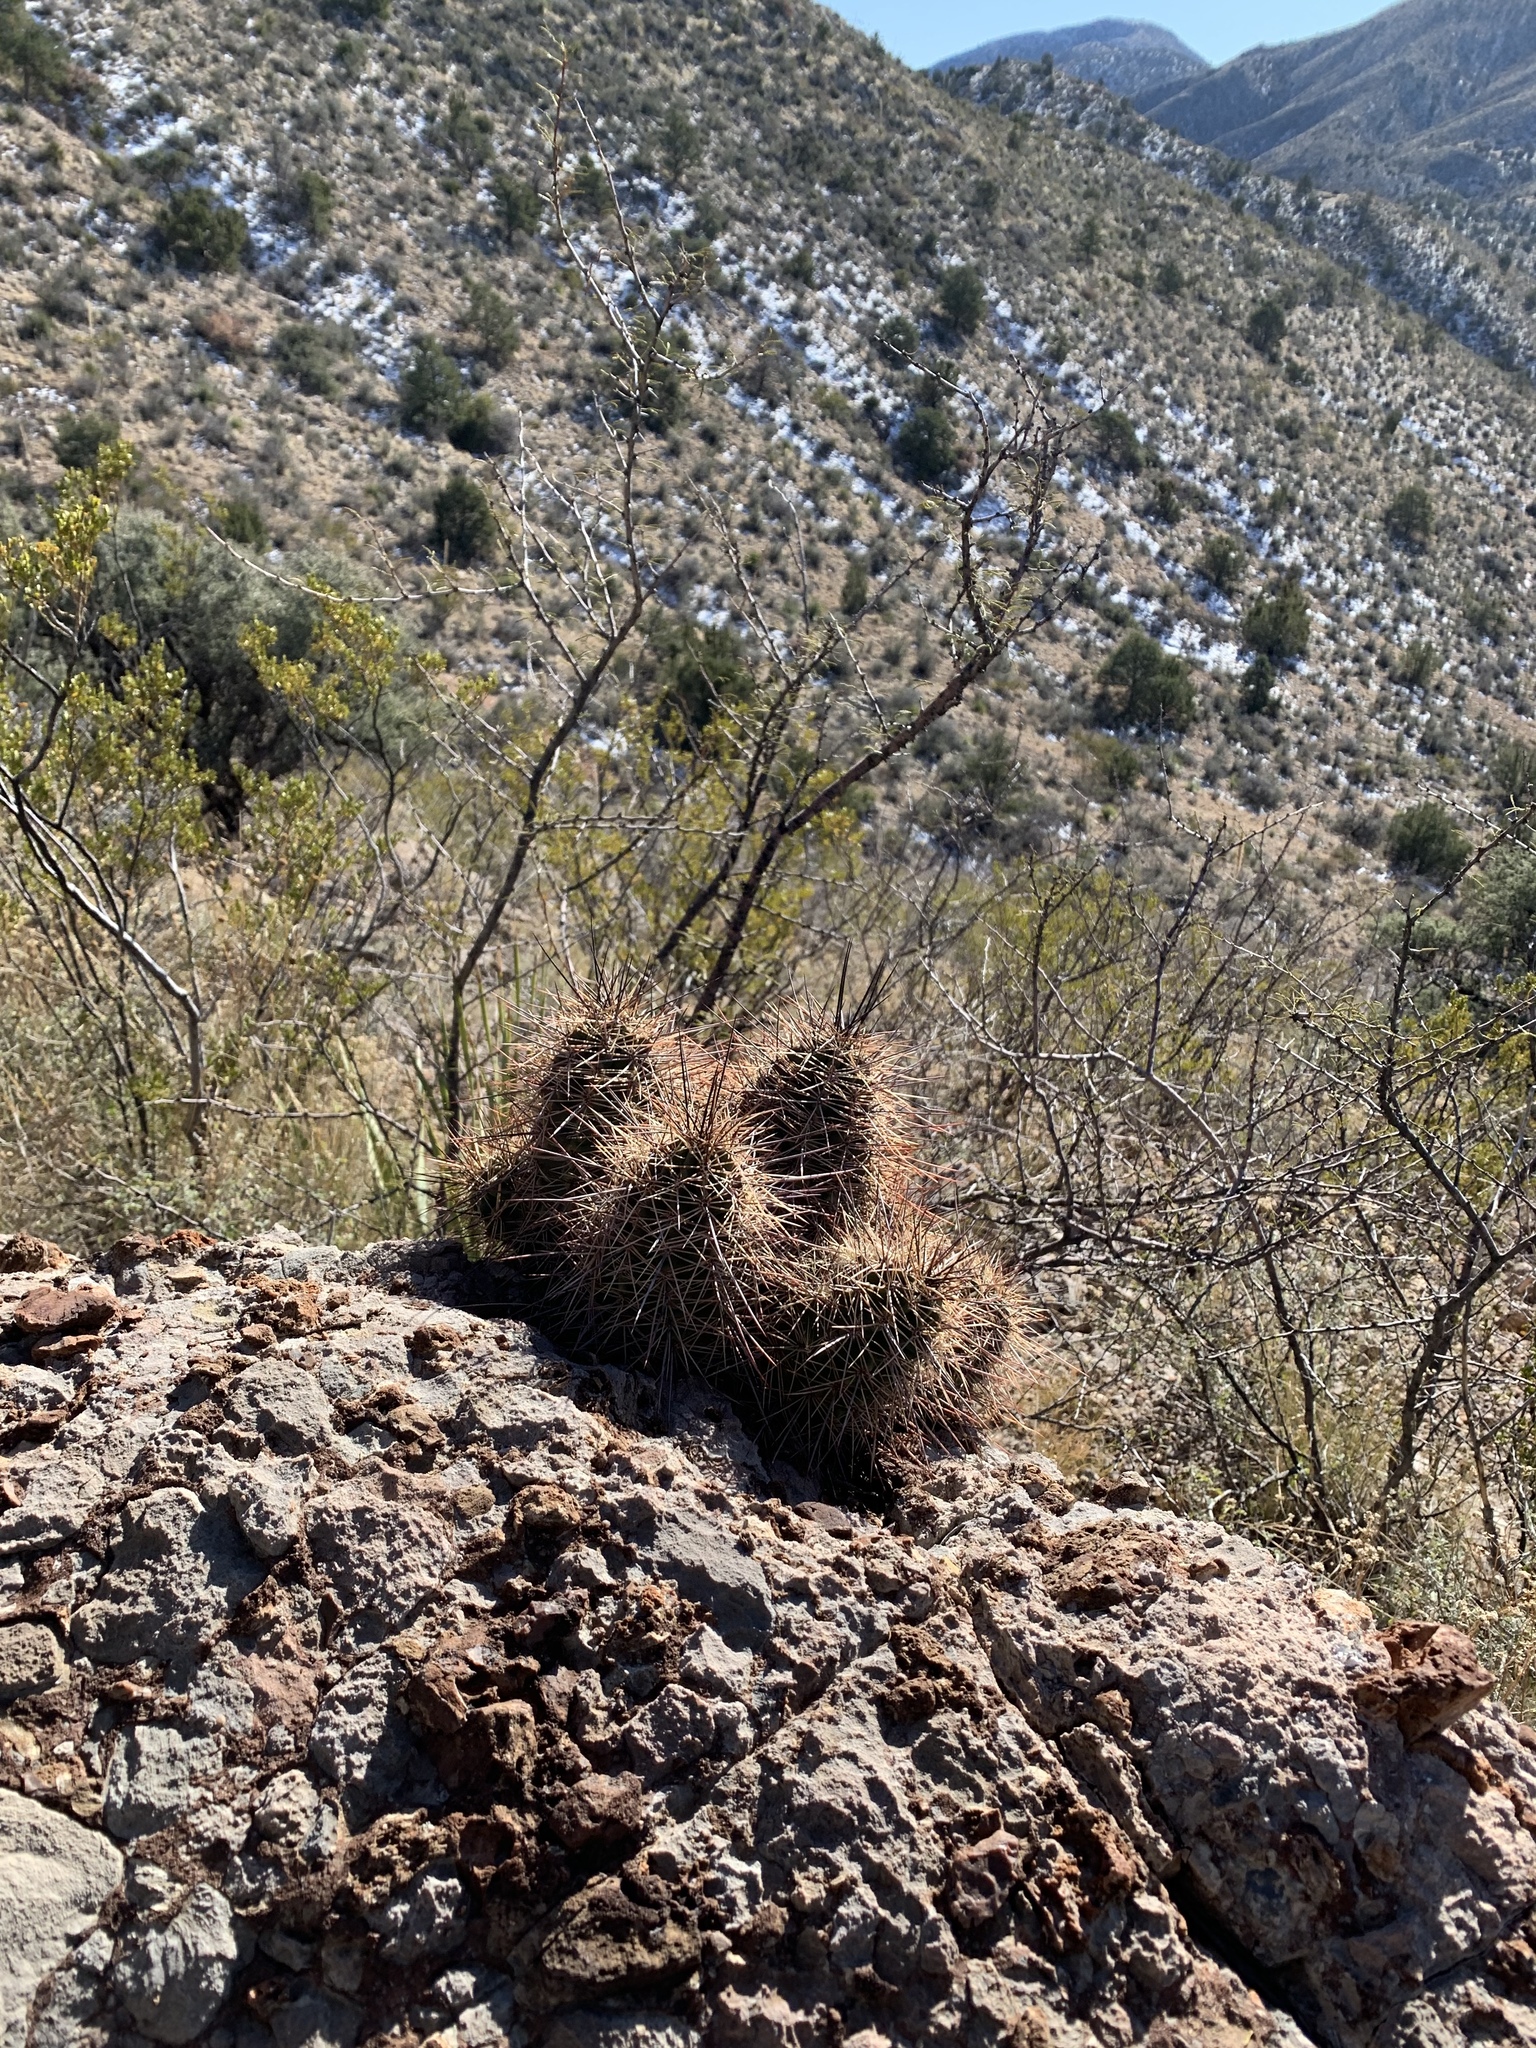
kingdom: Plantae
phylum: Tracheophyta
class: Magnoliopsida
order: Caryophyllales
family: Cactaceae
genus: Echinocereus
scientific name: Echinocereus coccineus
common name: Scarlet hedgehog cactus
